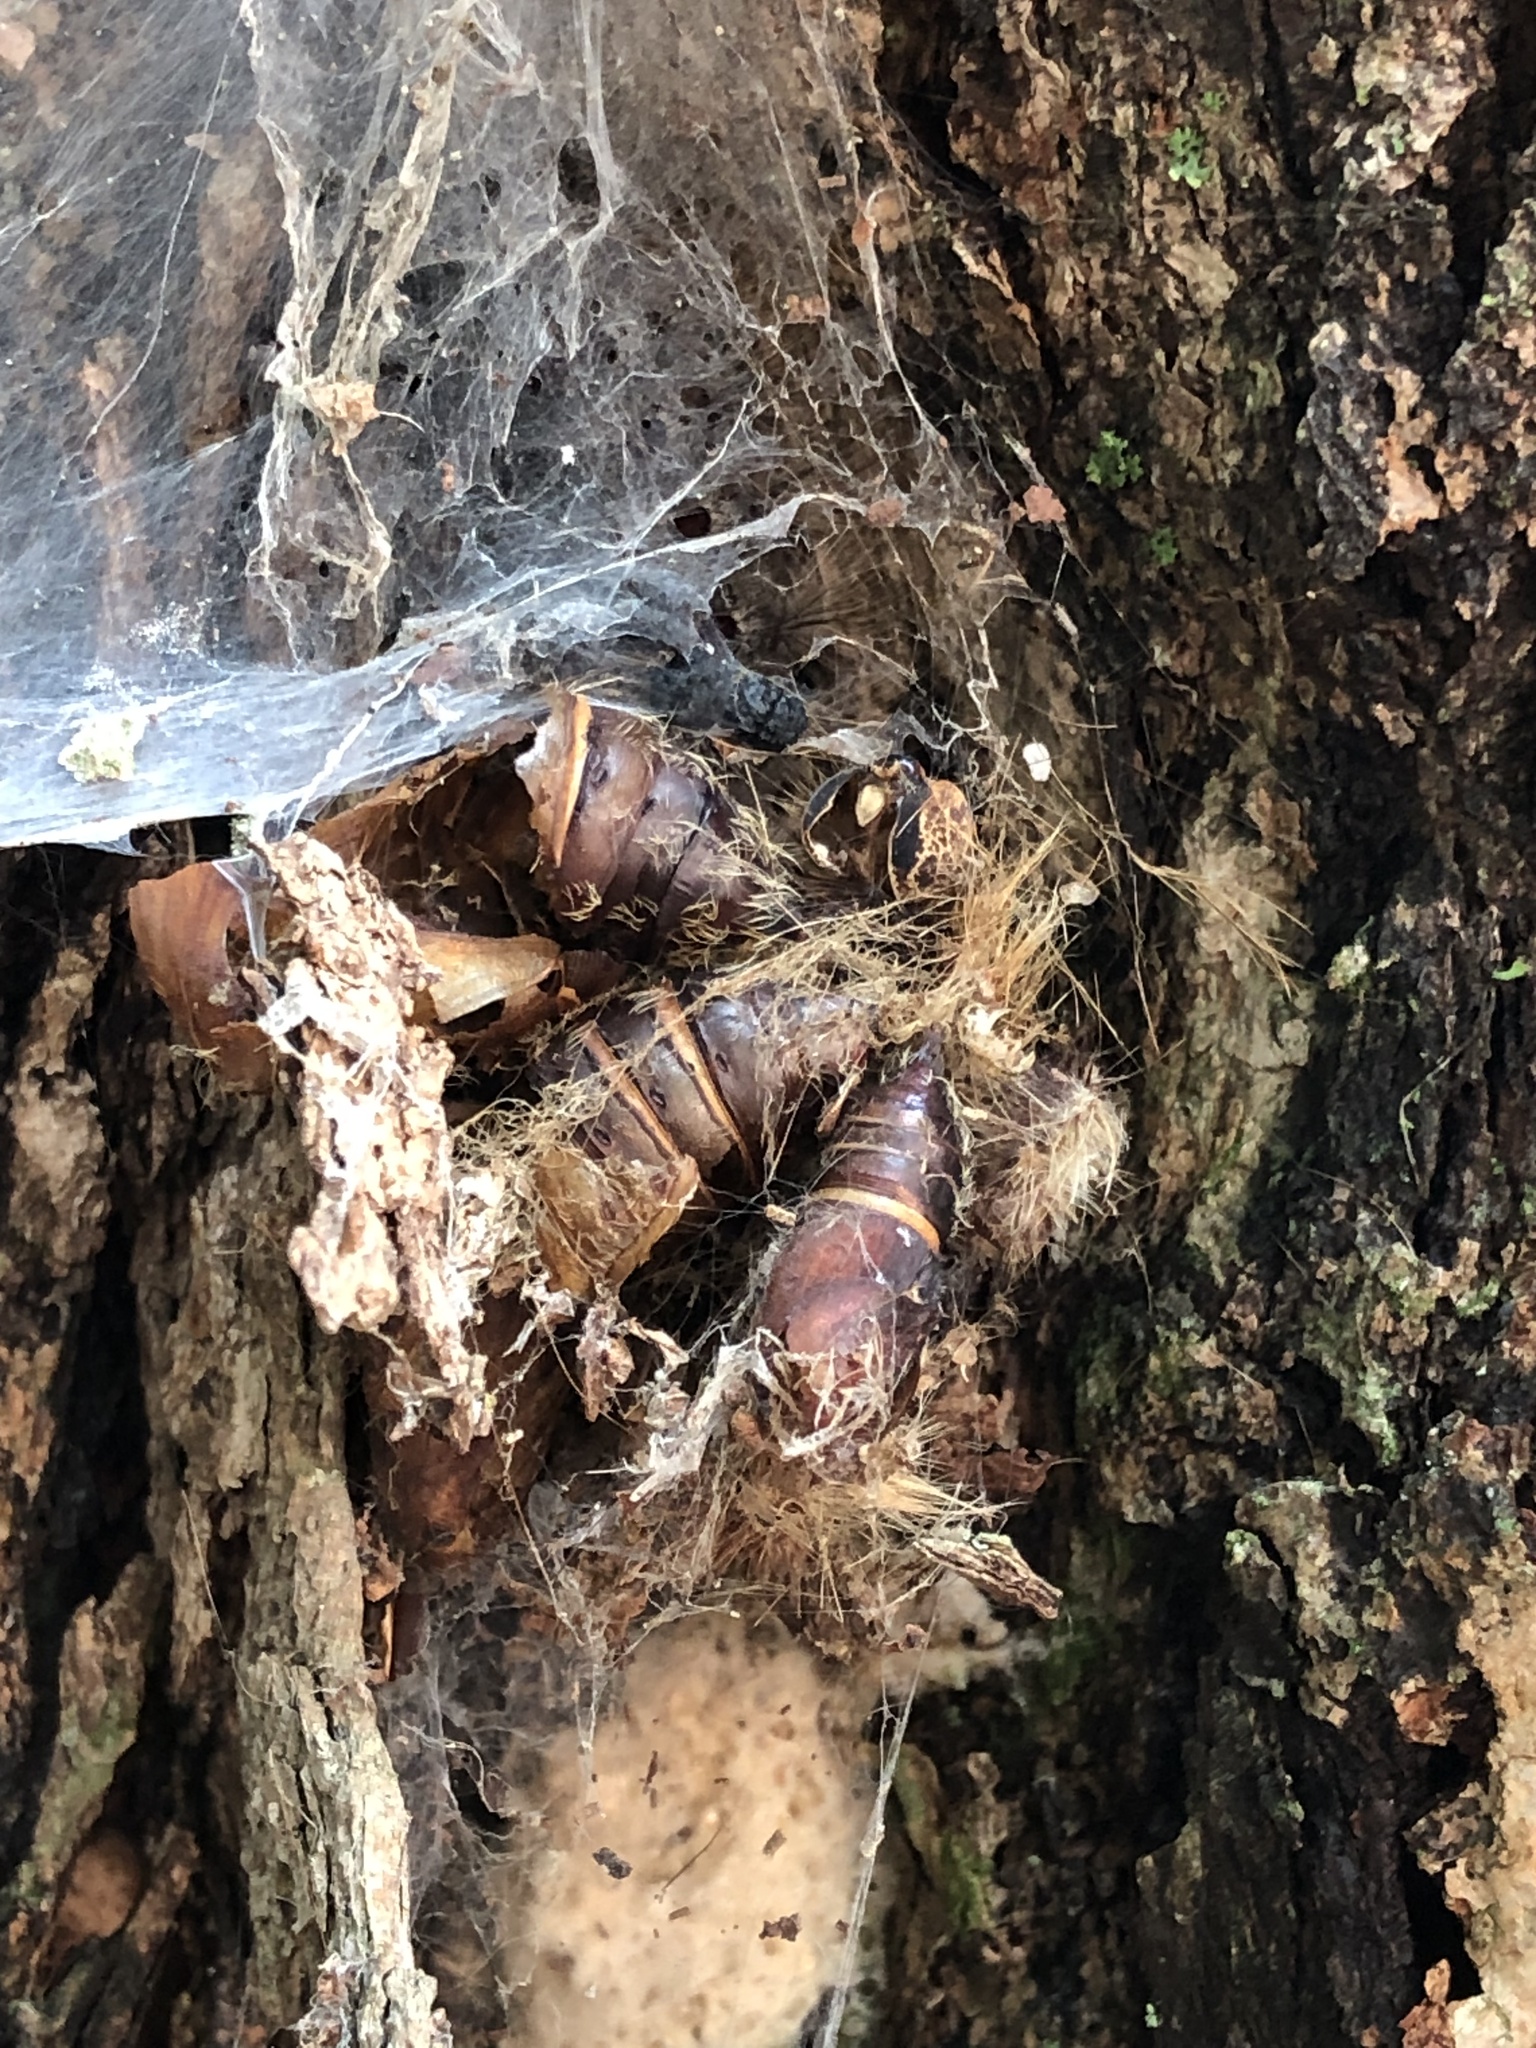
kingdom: Animalia
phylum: Arthropoda
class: Insecta
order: Lepidoptera
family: Erebidae
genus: Lymantria
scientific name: Lymantria dispar
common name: Gypsy moth
